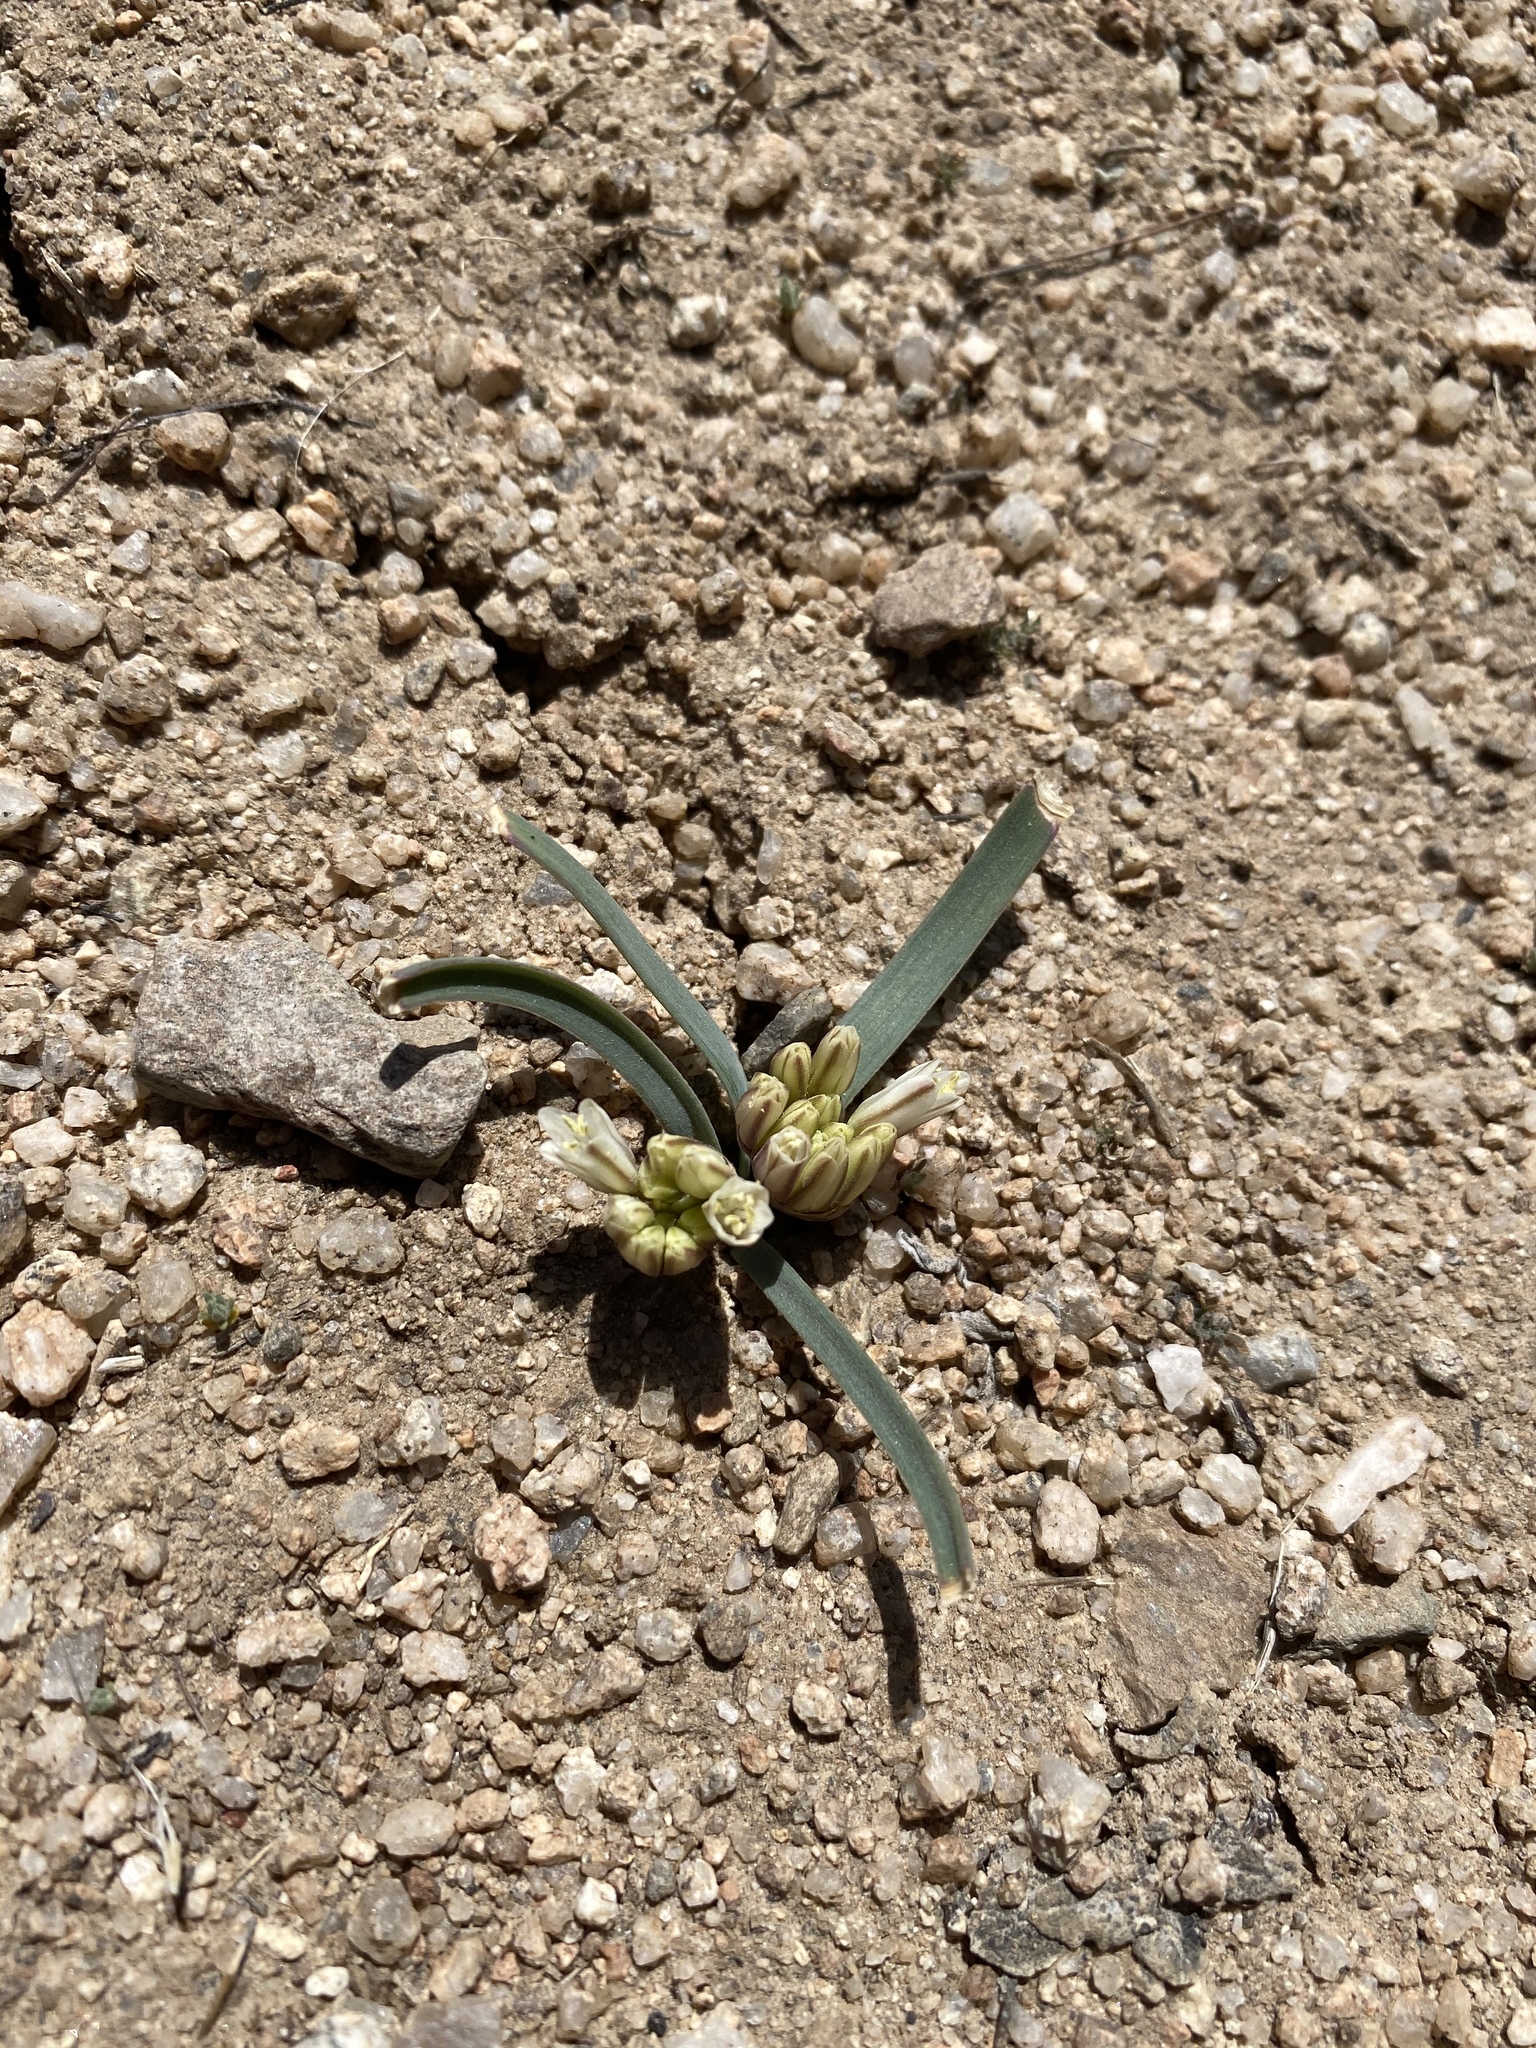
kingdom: Plantae
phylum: Tracheophyta
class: Liliopsida
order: Asparagales
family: Amaryllidaceae
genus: Allium
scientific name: Allium parvum
